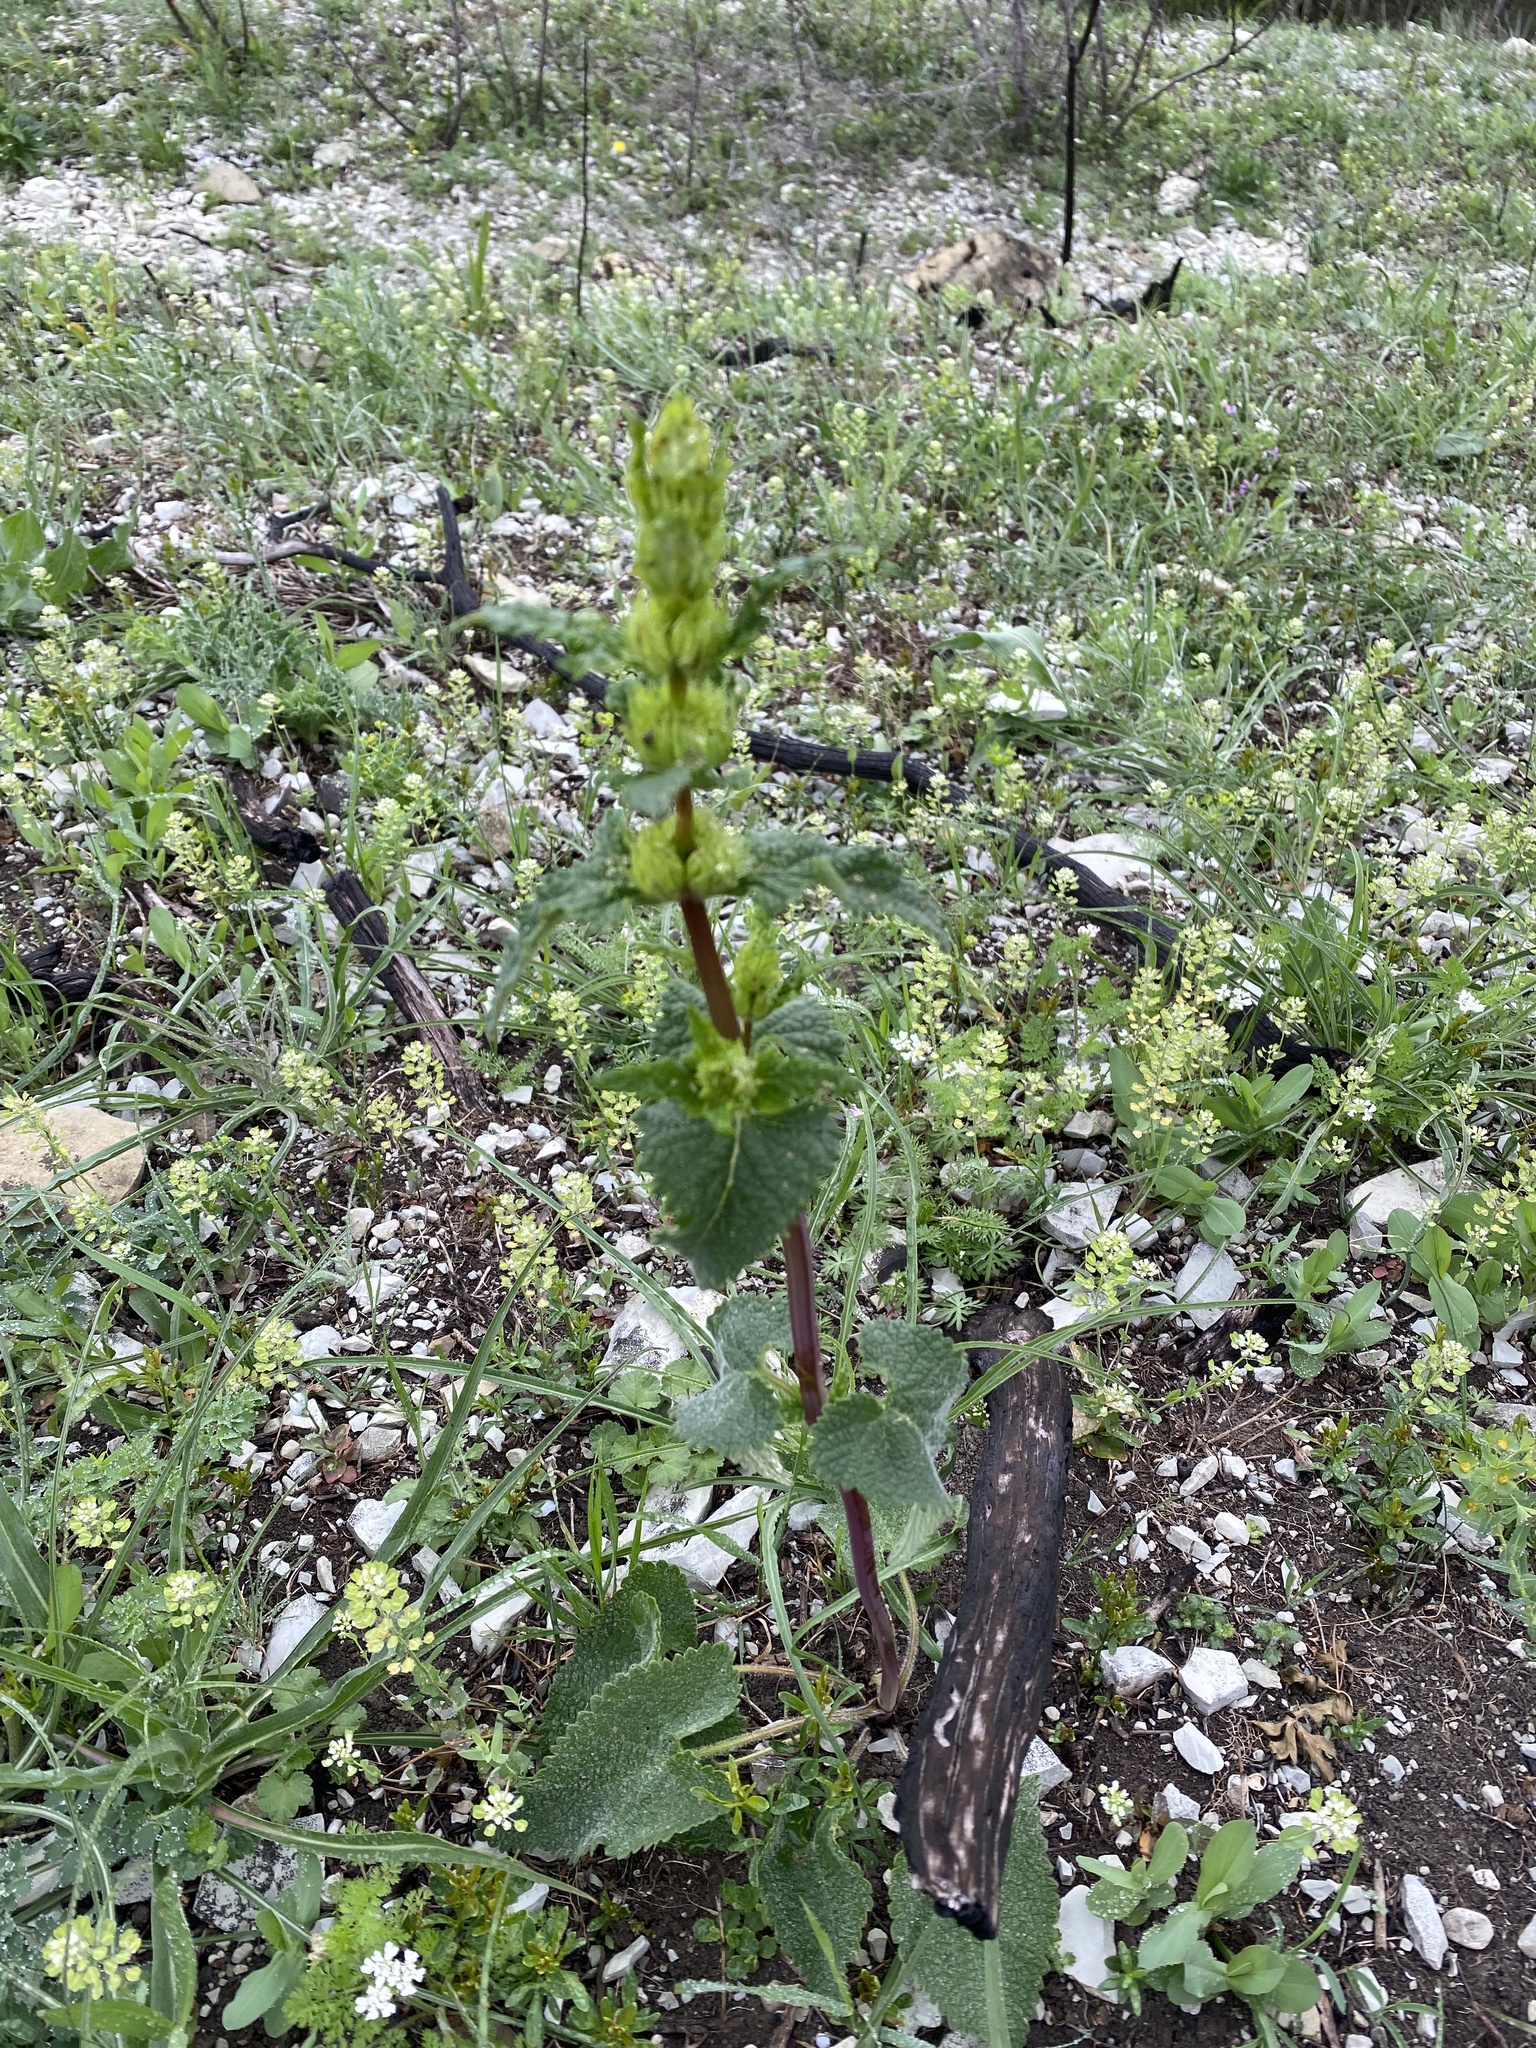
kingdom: Plantae
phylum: Tracheophyta
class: Magnoliopsida
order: Lamiales
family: Lamiaceae
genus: Phlomoides
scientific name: Phlomoides tuberosa
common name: Tuberous jerusalem sage
